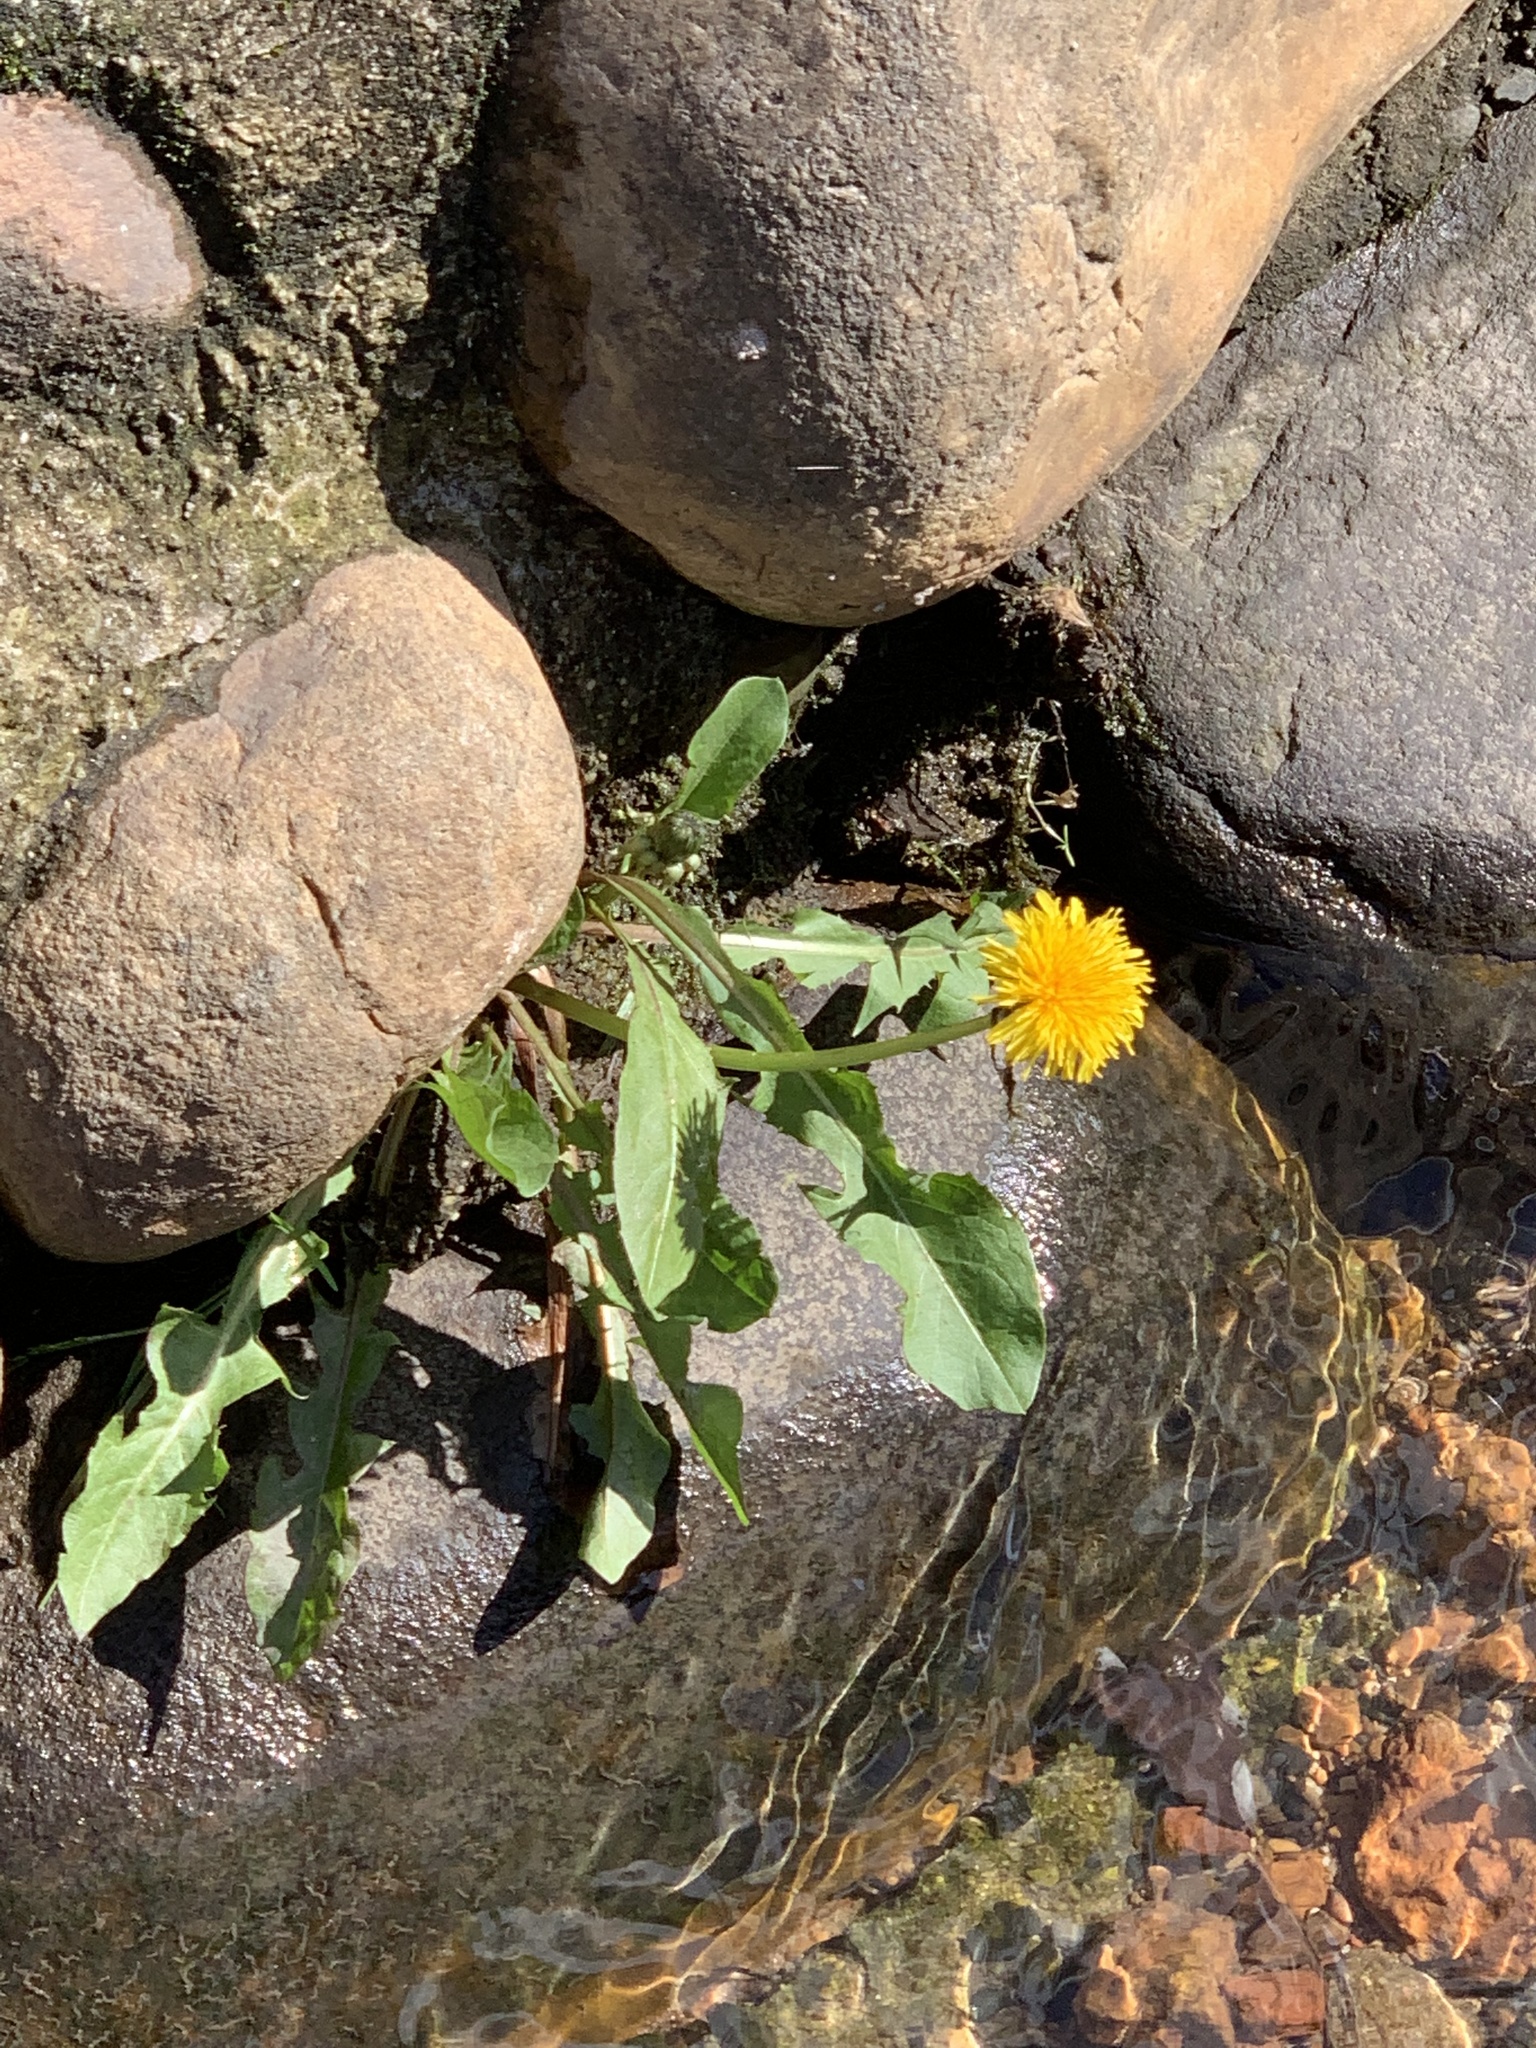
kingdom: Plantae
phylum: Tracheophyta
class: Magnoliopsida
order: Asterales
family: Asteraceae
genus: Taraxacum
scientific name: Taraxacum officinale
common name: Common dandelion
